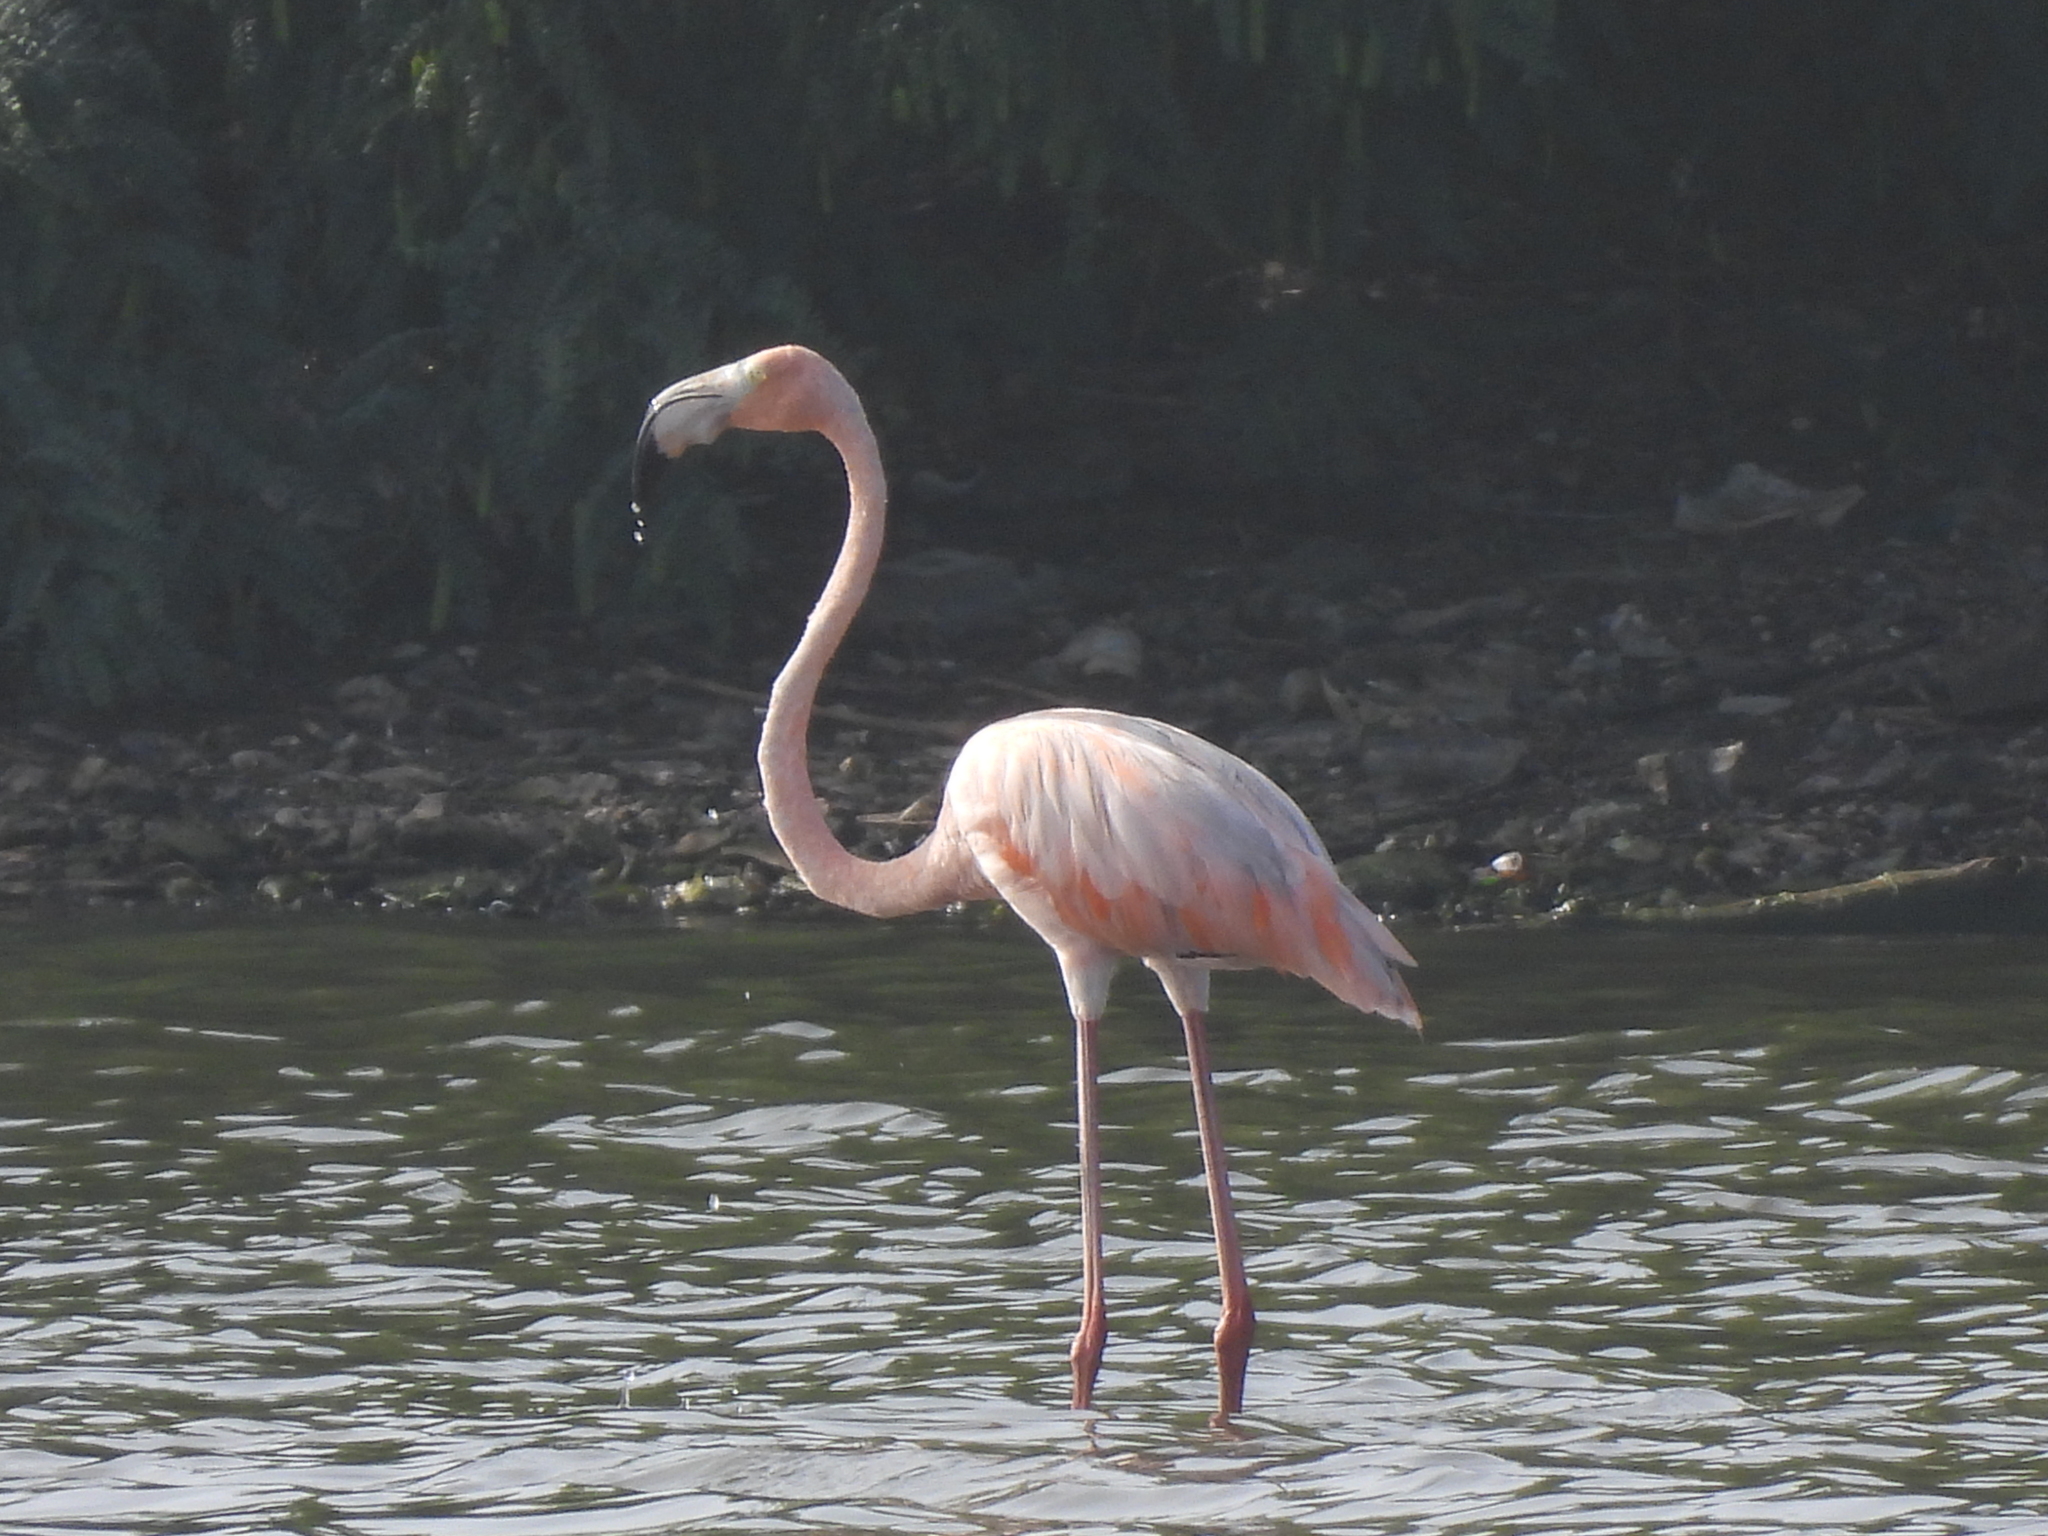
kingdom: Animalia
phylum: Chordata
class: Aves
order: Phoenicopteriformes
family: Phoenicopteridae
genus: Phoenicopterus
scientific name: Phoenicopterus ruber
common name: American flamingo
